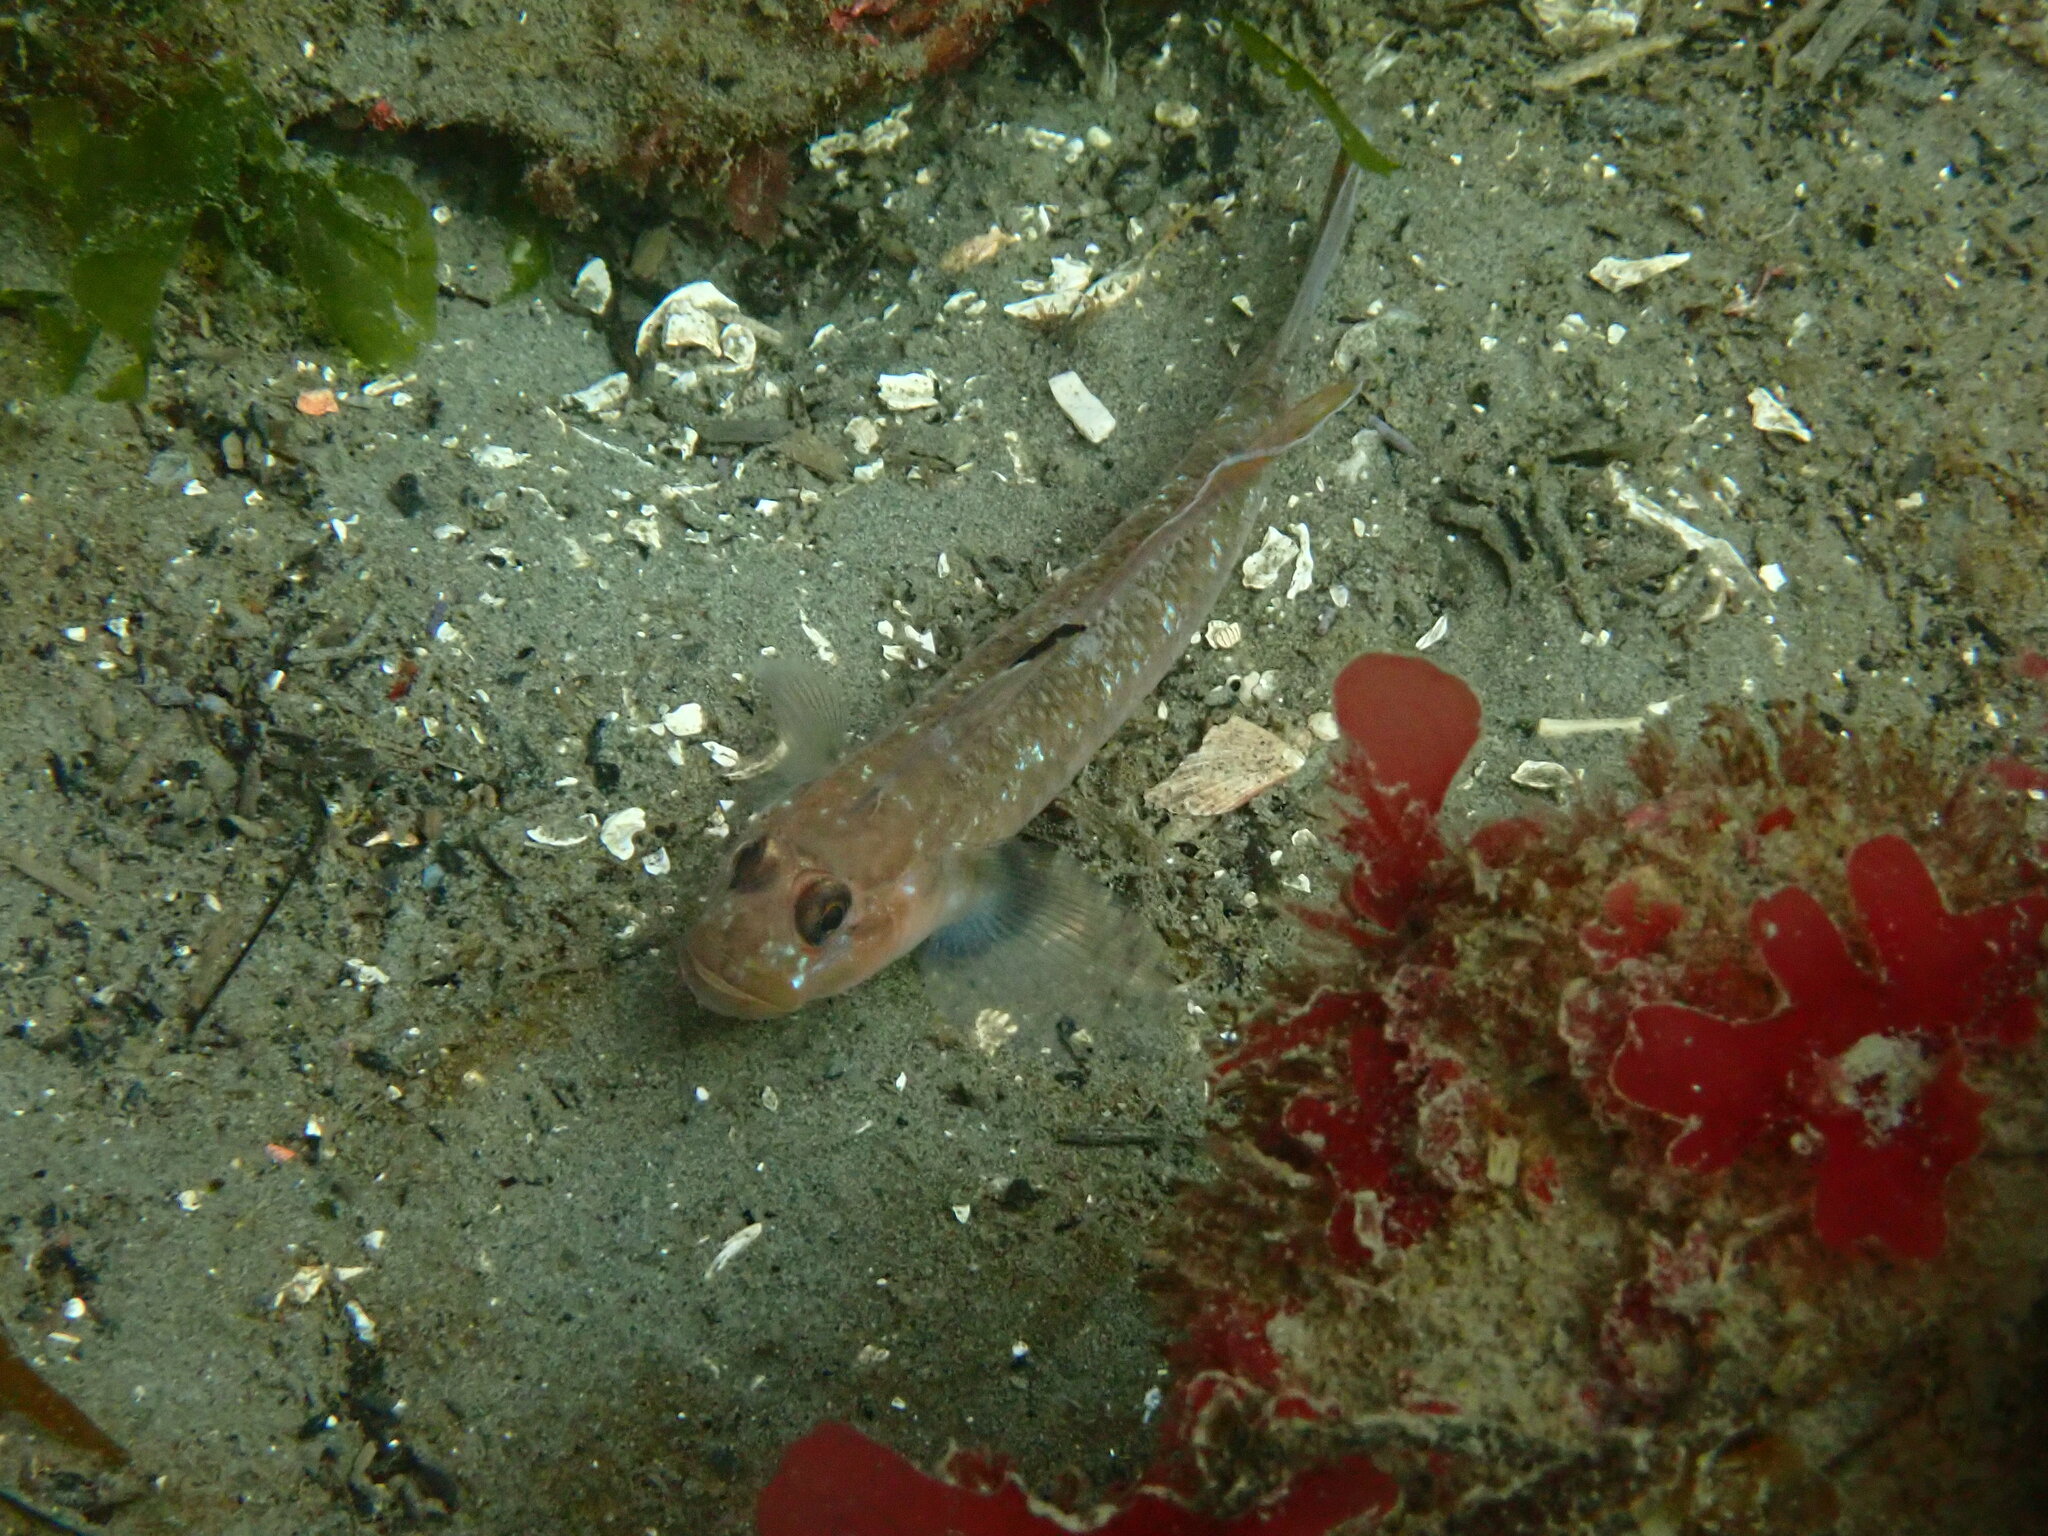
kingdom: Animalia
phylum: Chordata
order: Perciformes
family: Gobiidae
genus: Rhinogobiops
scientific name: Rhinogobiops nicholsii
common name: Blackeye goby
